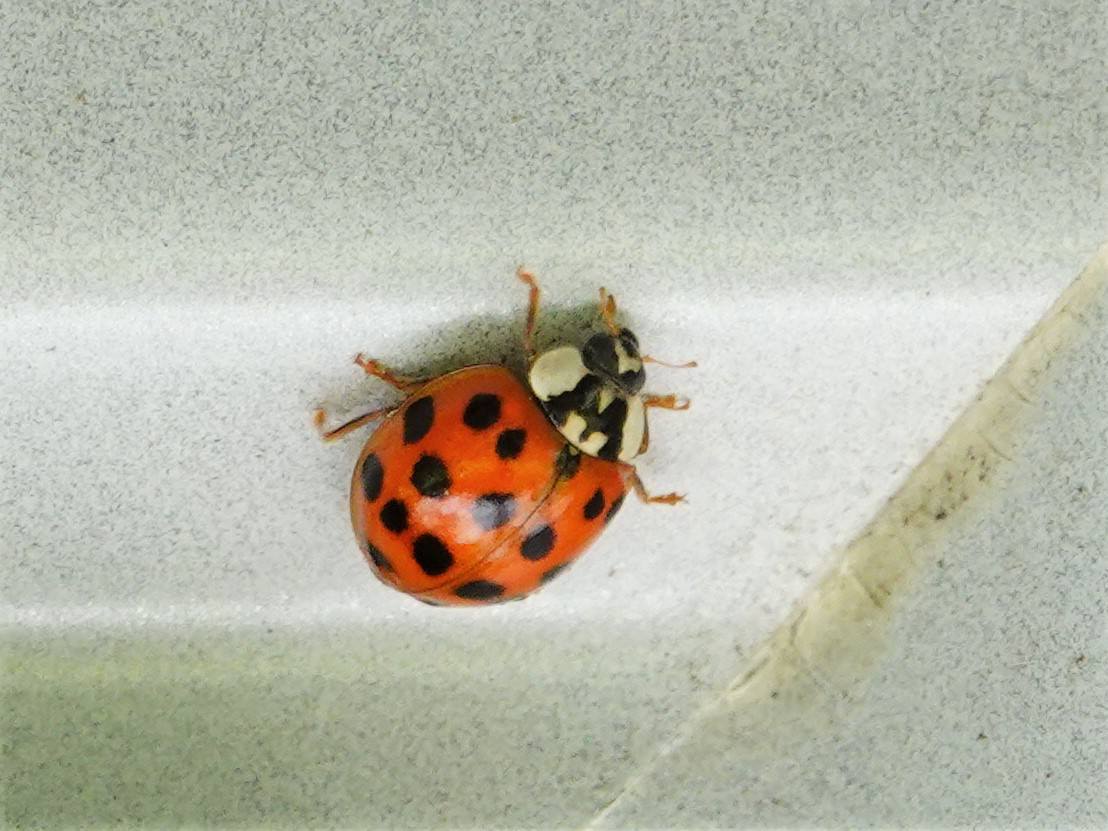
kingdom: Animalia
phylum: Arthropoda
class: Insecta
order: Coleoptera
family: Coccinellidae
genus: Harmonia
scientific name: Harmonia axyridis
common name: Harlequin ladybird
